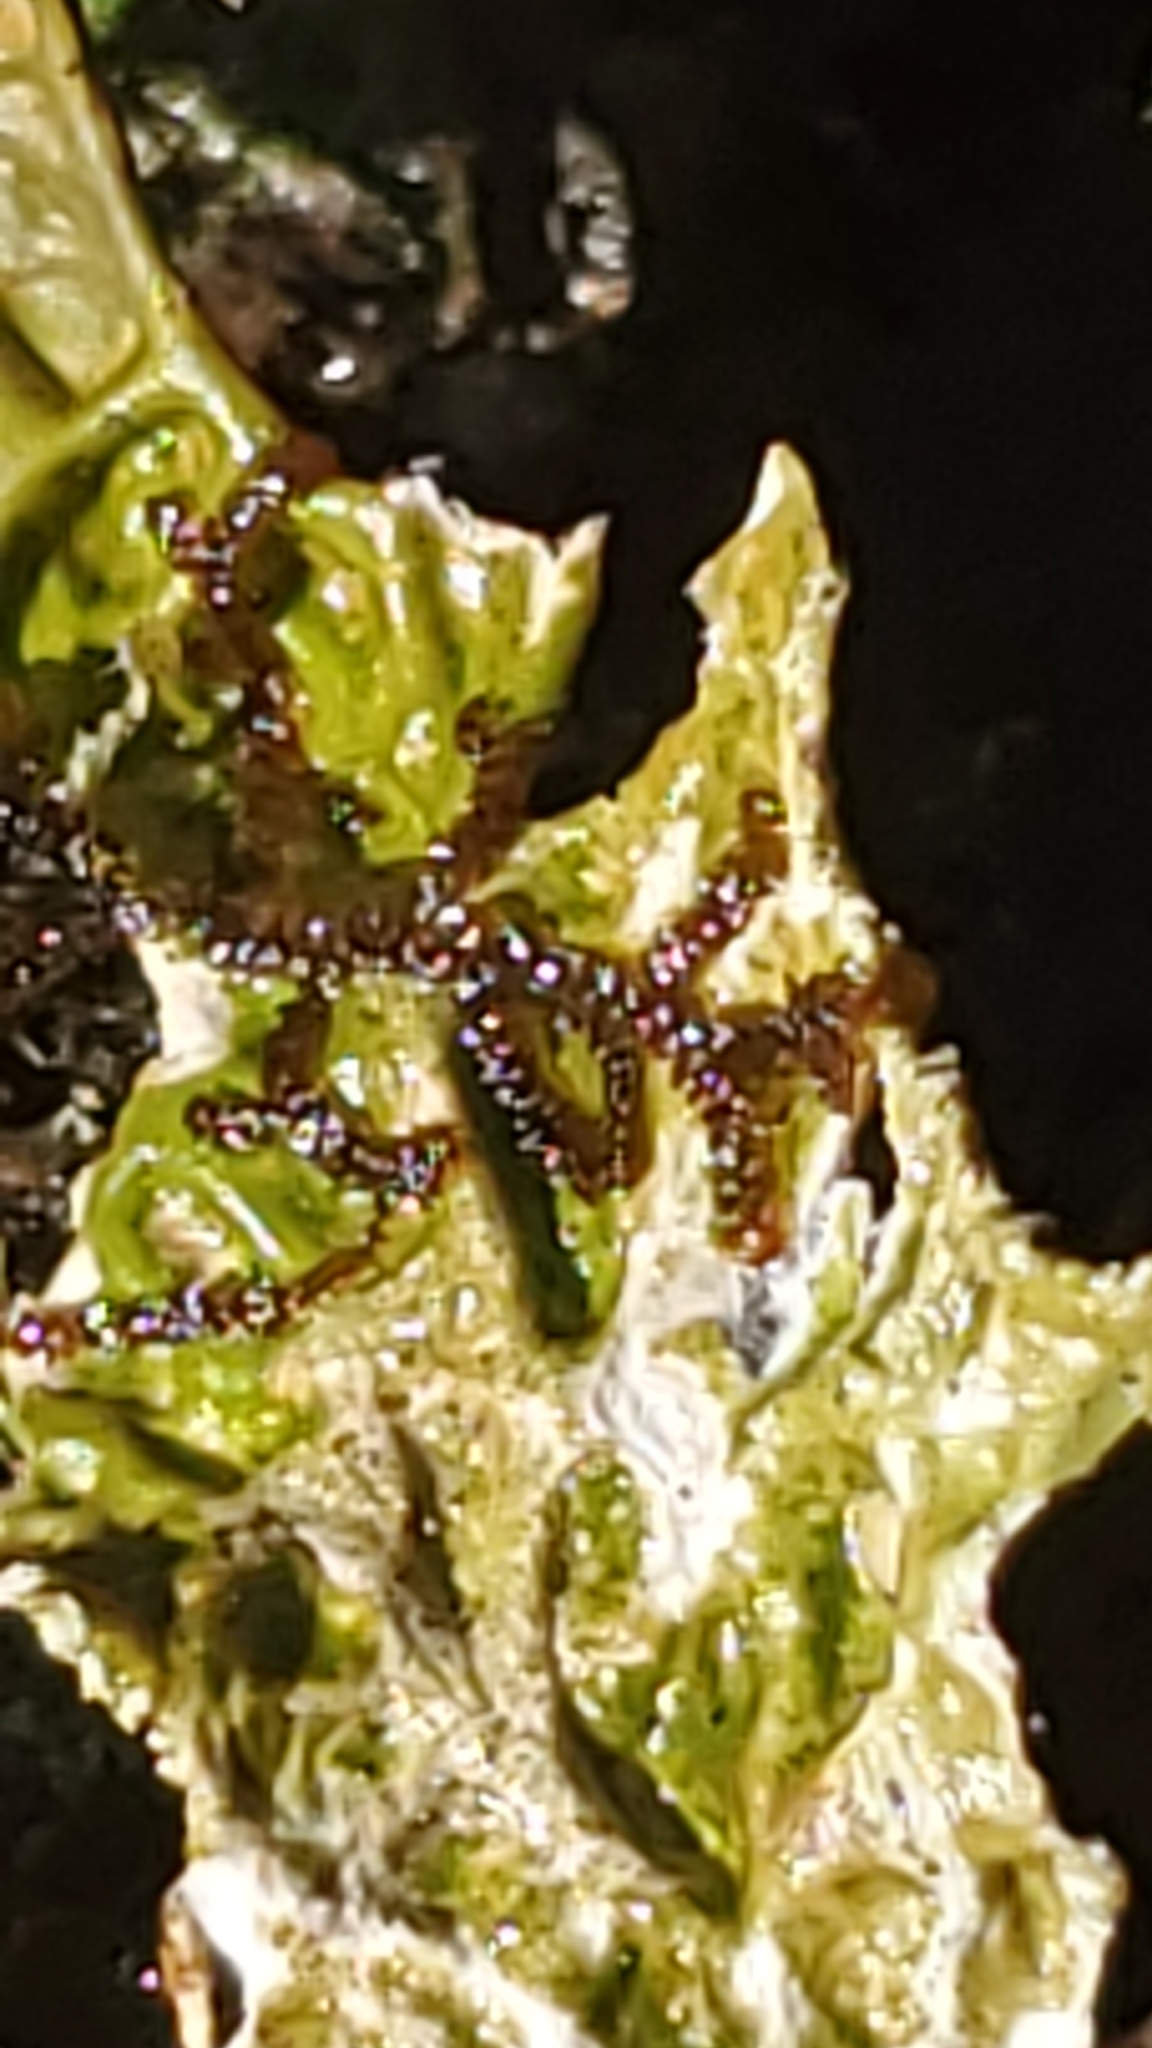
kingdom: Fungi
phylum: Ascomycota
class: Lecanoromycetes
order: Peltigerales
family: Lobariaceae
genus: Lobaria
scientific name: Lobaria pulmonaria
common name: Lungwort
